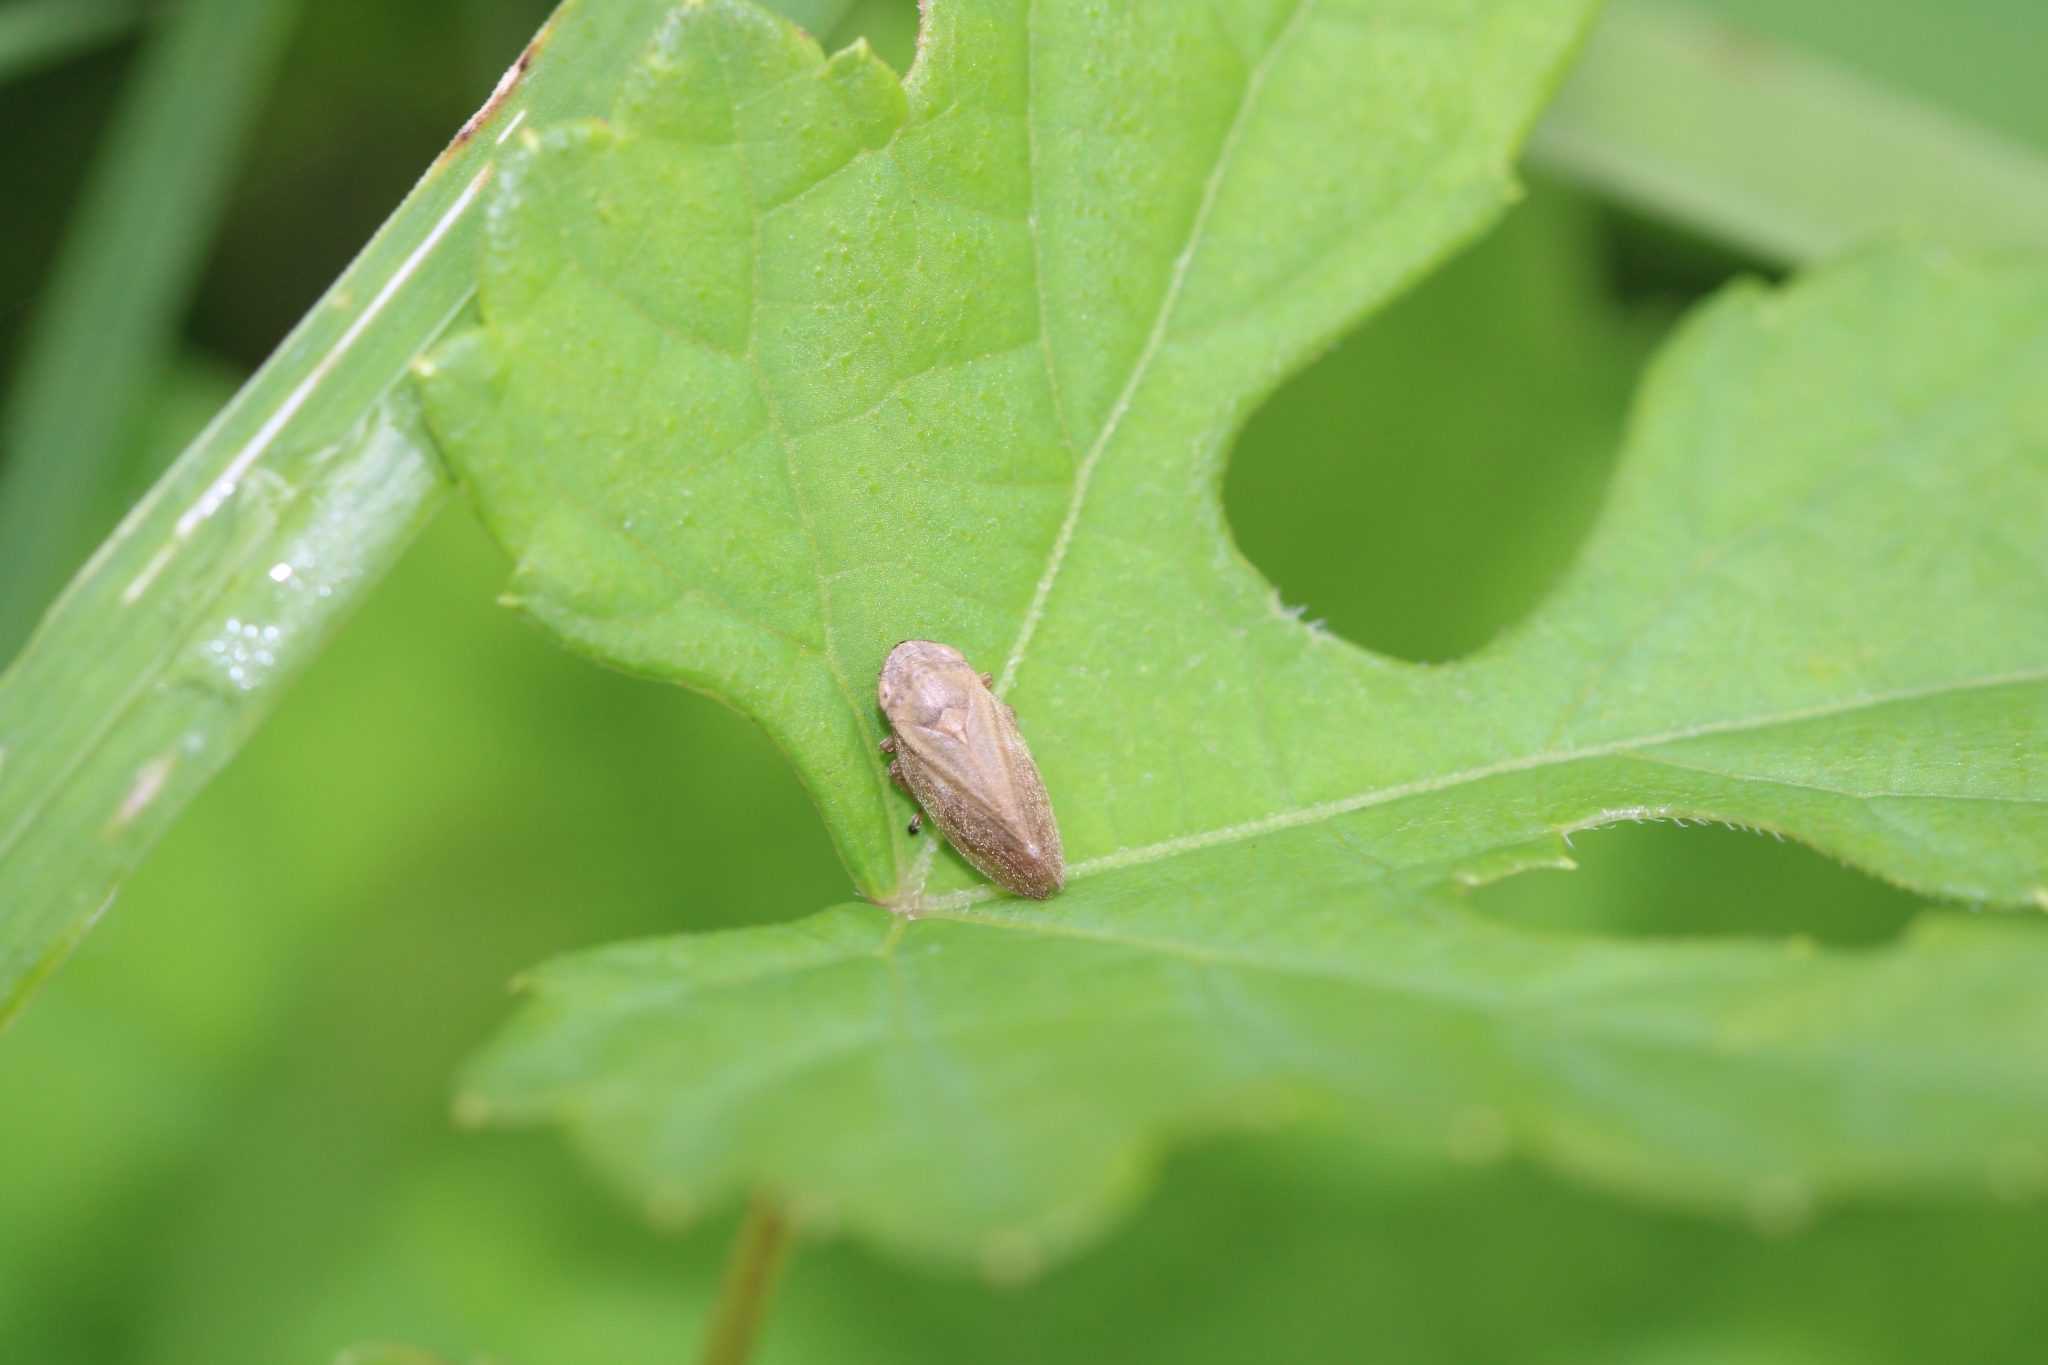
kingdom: Animalia
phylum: Arthropoda
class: Insecta
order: Hemiptera
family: Aphrophoridae
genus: Philaenus
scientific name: Philaenus spumarius
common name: Meadow spittlebug
